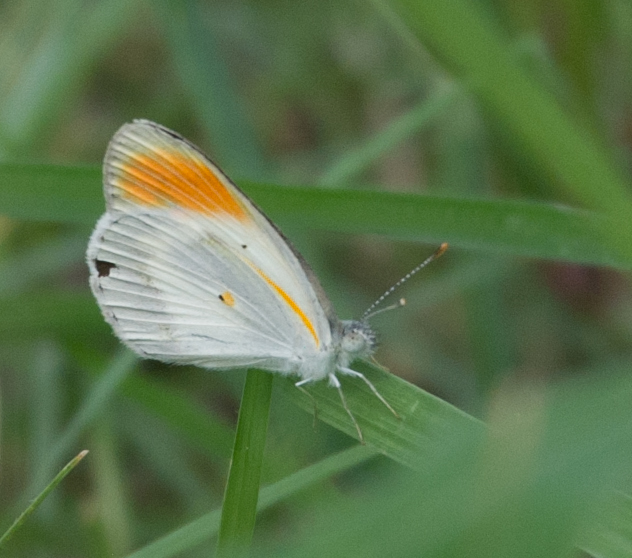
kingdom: Animalia
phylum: Arthropoda
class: Insecta
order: Lepidoptera
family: Pieridae
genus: Colotis
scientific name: Colotis evagore
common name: Desert orange-tip
